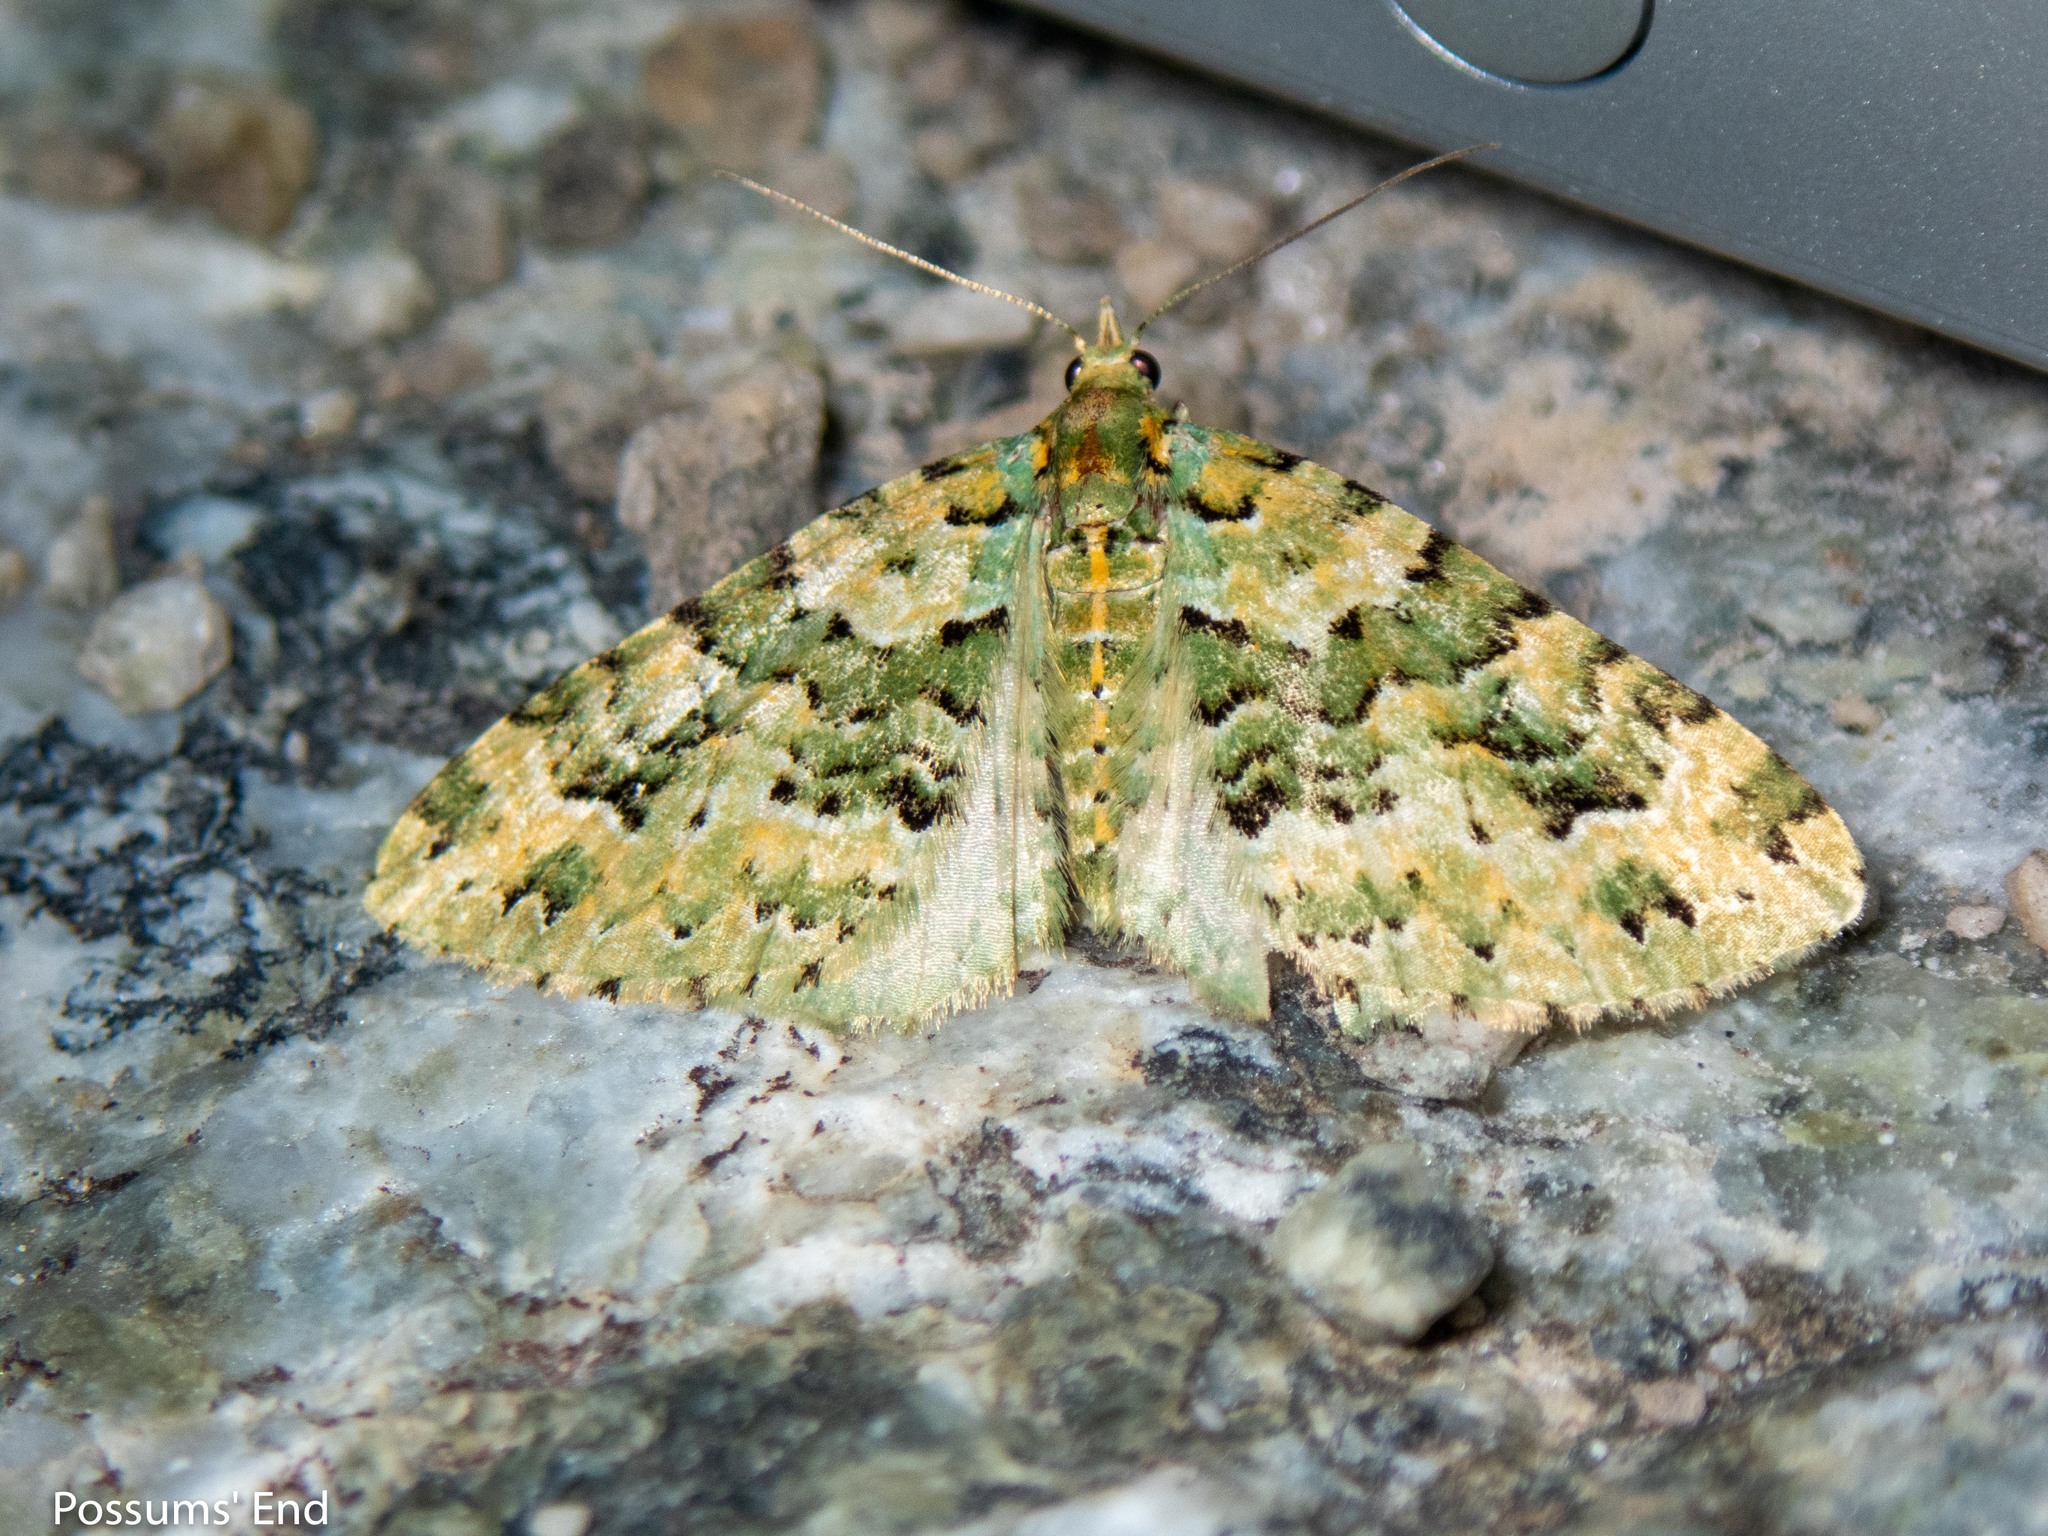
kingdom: Animalia
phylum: Arthropoda
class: Insecta
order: Lepidoptera
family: Geometridae
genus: Pasiphila
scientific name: Pasiphila melochlora
